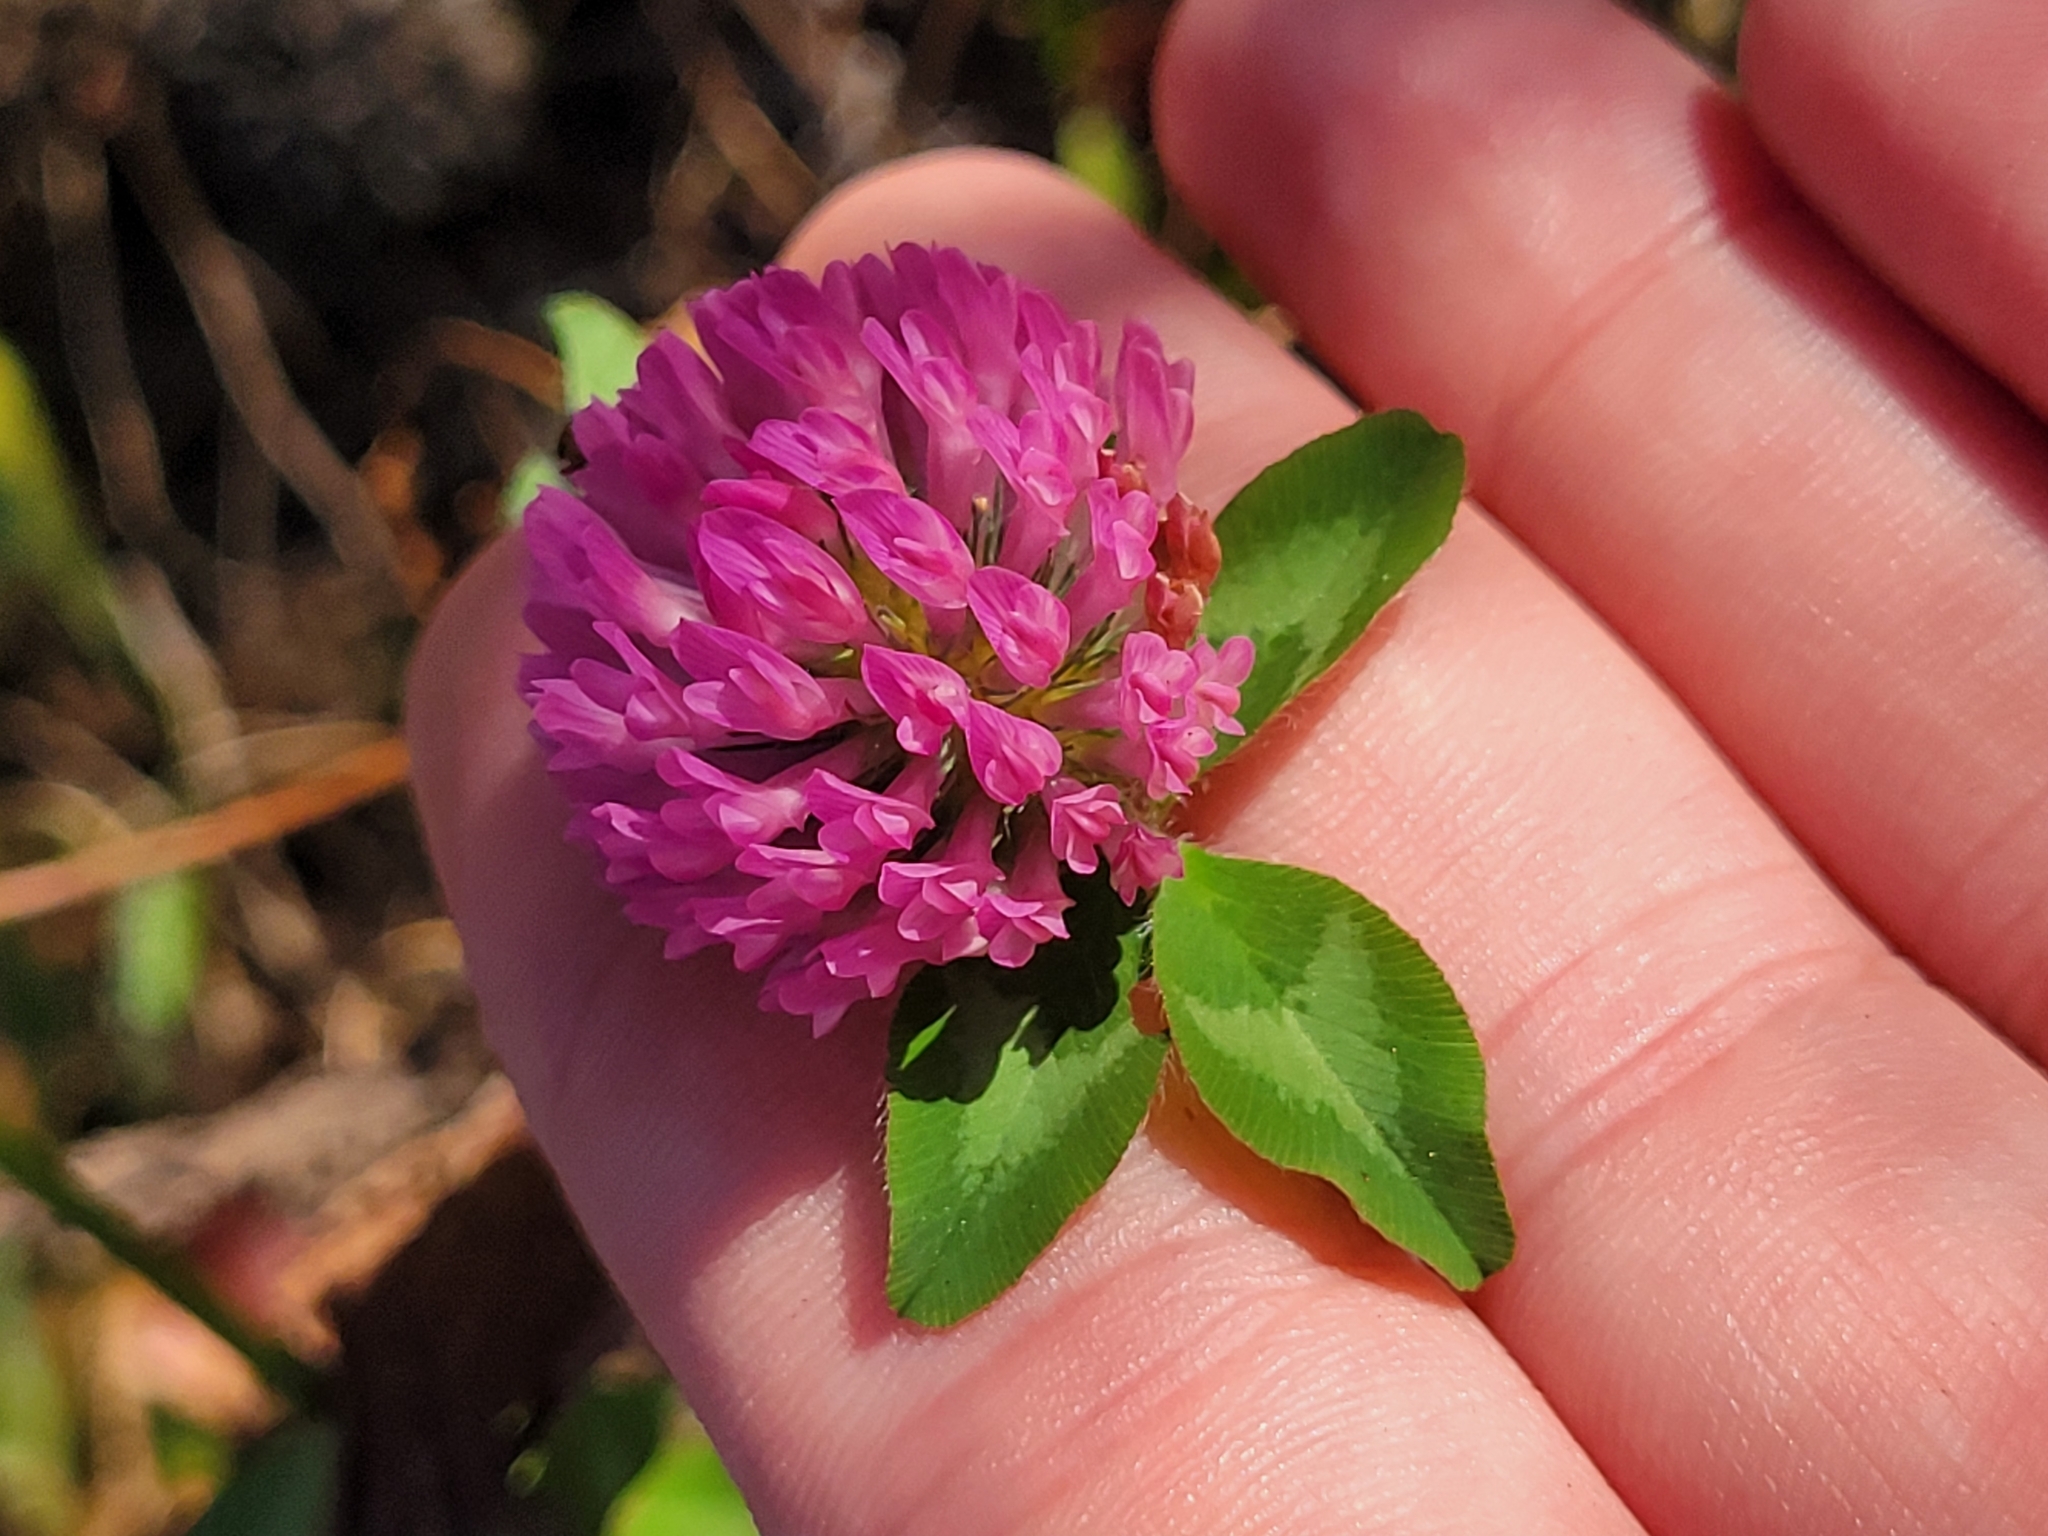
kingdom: Plantae
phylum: Tracheophyta
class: Magnoliopsida
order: Fabales
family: Fabaceae
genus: Trifolium
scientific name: Trifolium pratense
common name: Red clover
